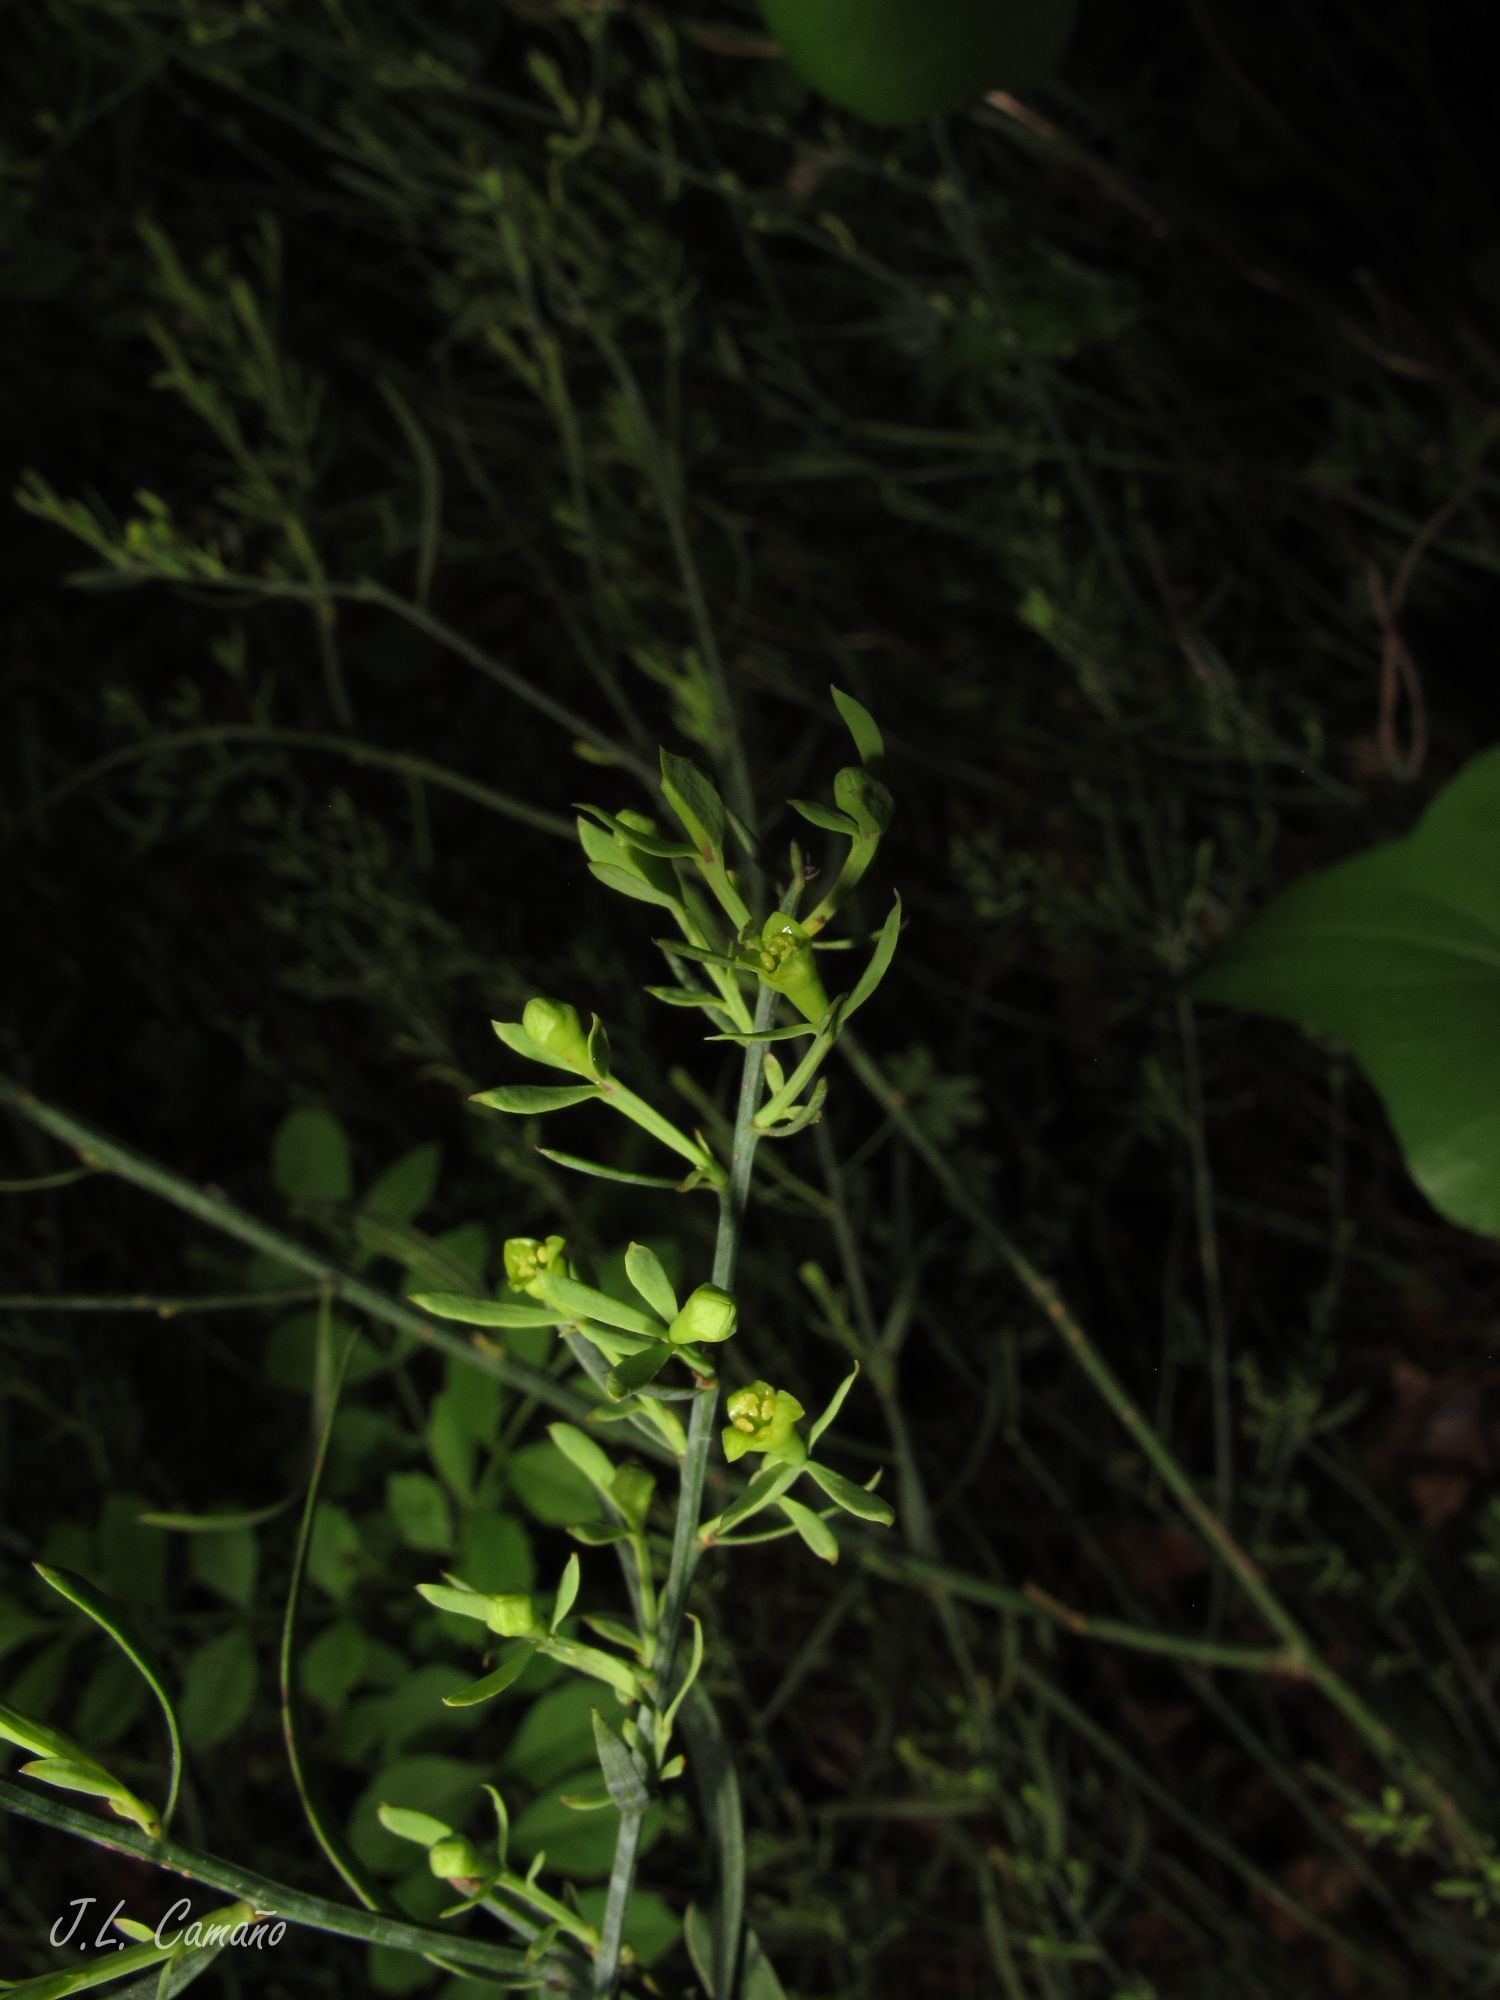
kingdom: Plantae
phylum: Tracheophyta
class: Magnoliopsida
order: Santalales
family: Santalaceae
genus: Osyris
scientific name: Osyris alba
